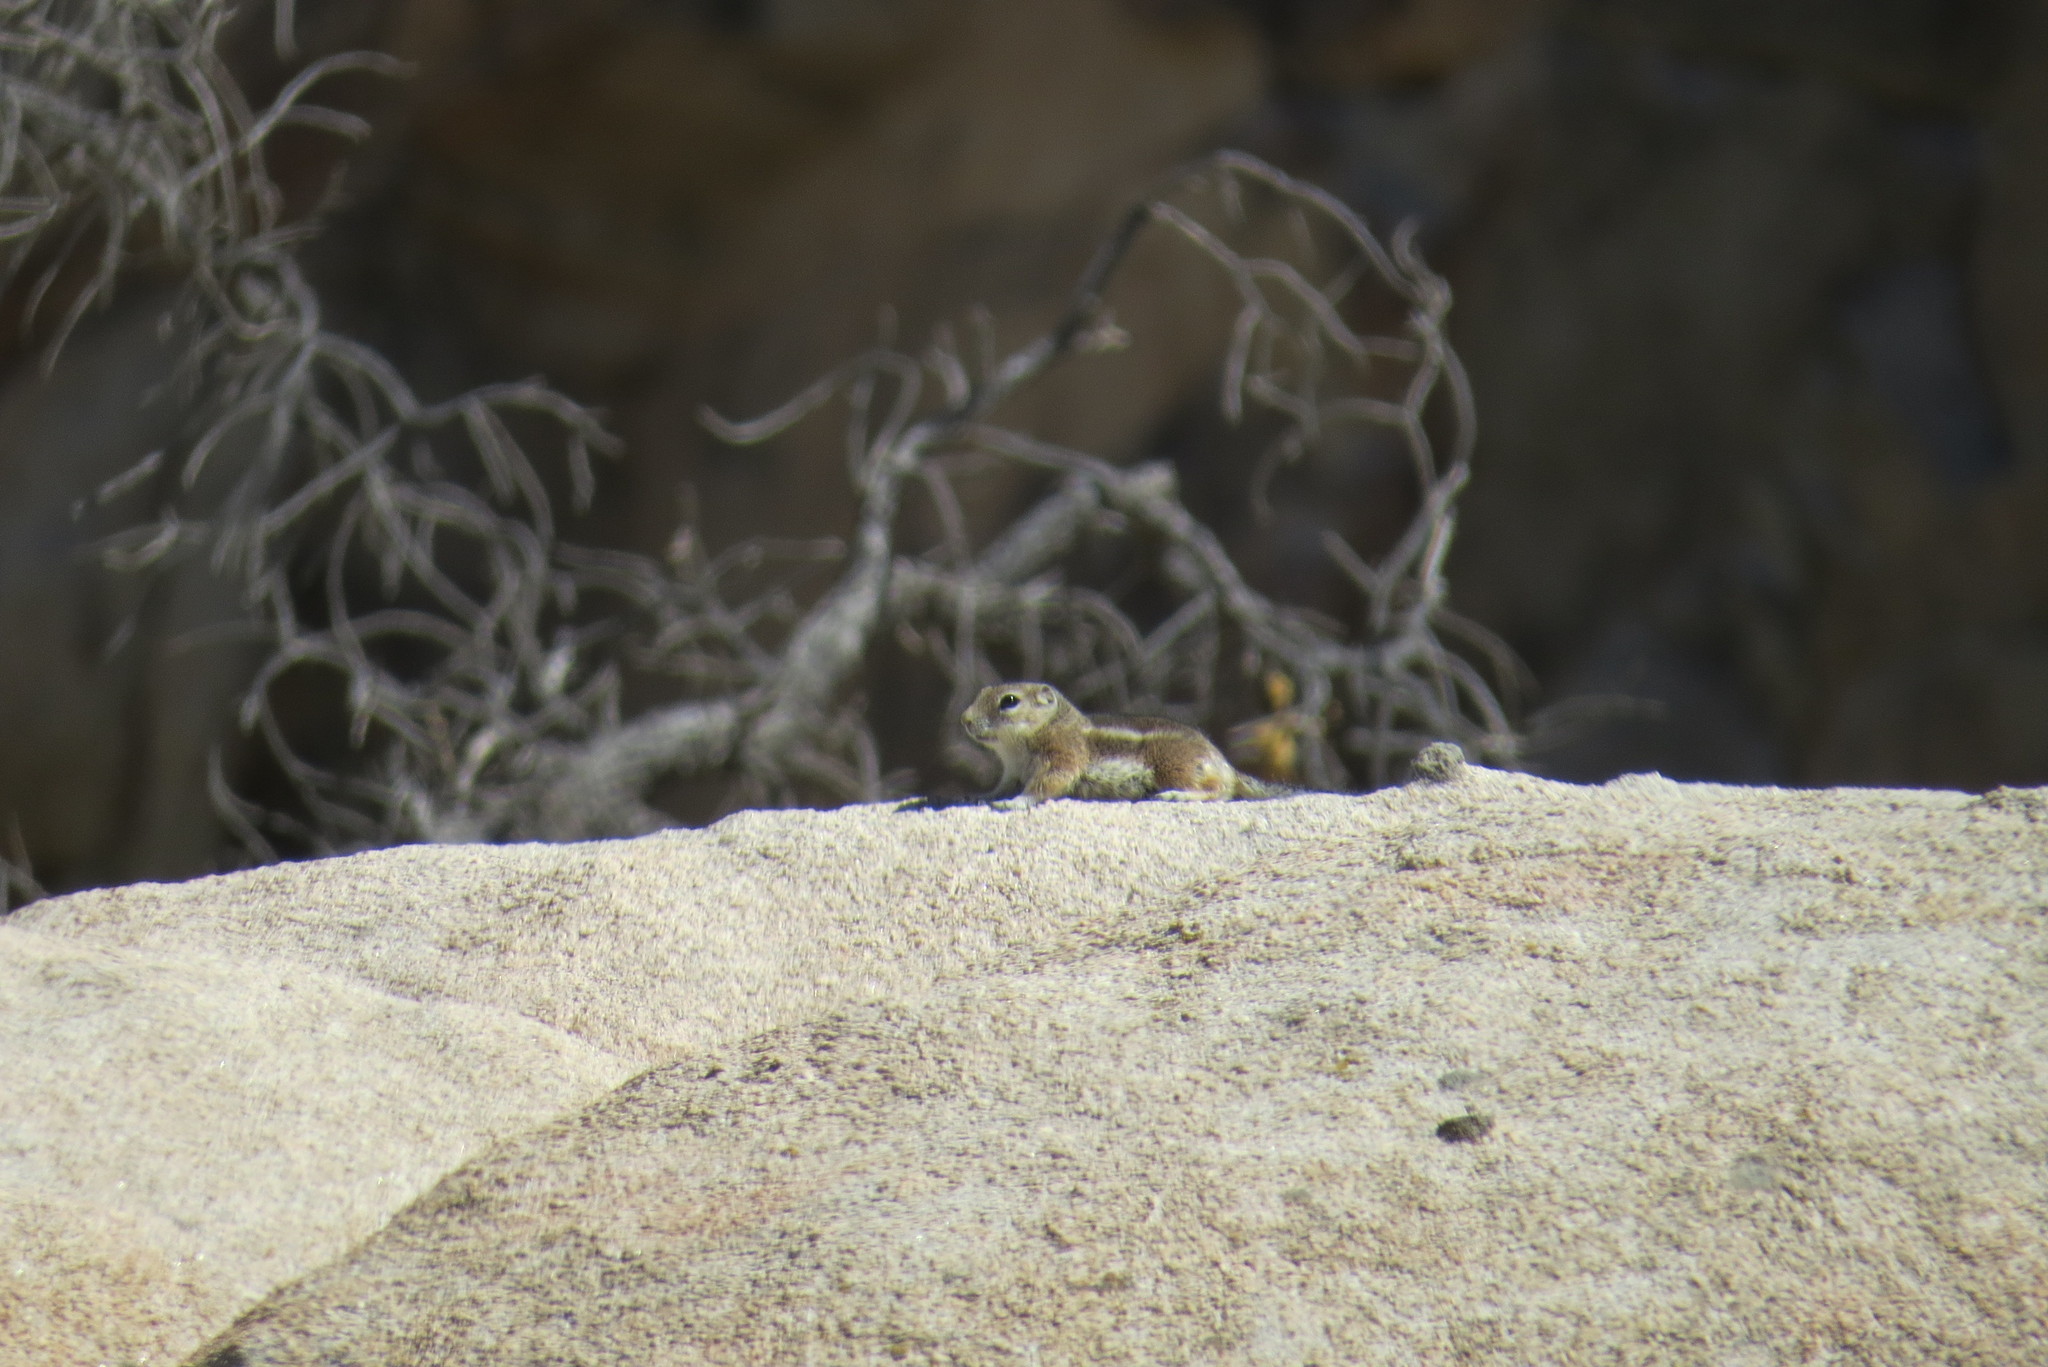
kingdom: Animalia
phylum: Chordata
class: Mammalia
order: Rodentia
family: Sciuridae
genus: Ammospermophilus
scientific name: Ammospermophilus leucurus
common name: White-tailed antelope squirrel
